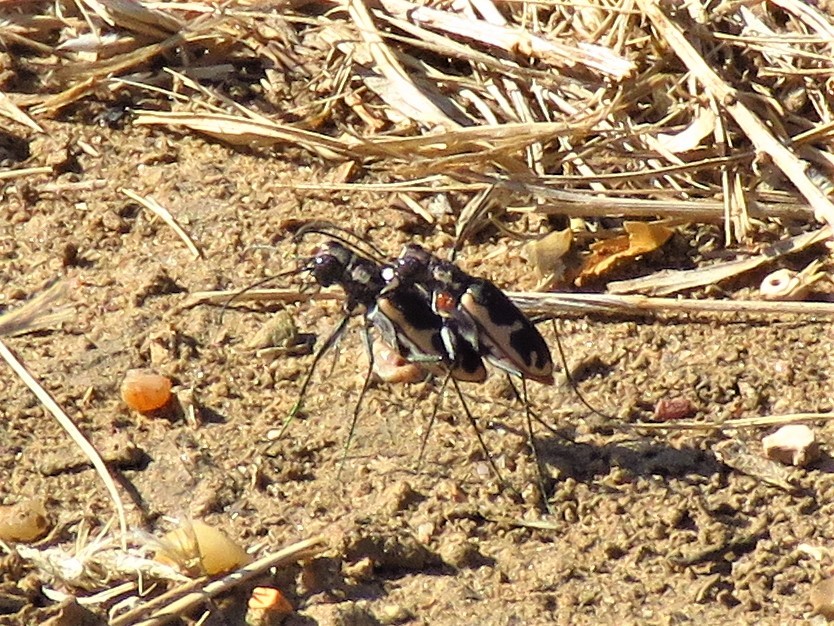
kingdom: Animalia
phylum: Arthropoda
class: Insecta
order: Coleoptera
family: Carabidae
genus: Cicindela
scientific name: Cicindela schauppii
